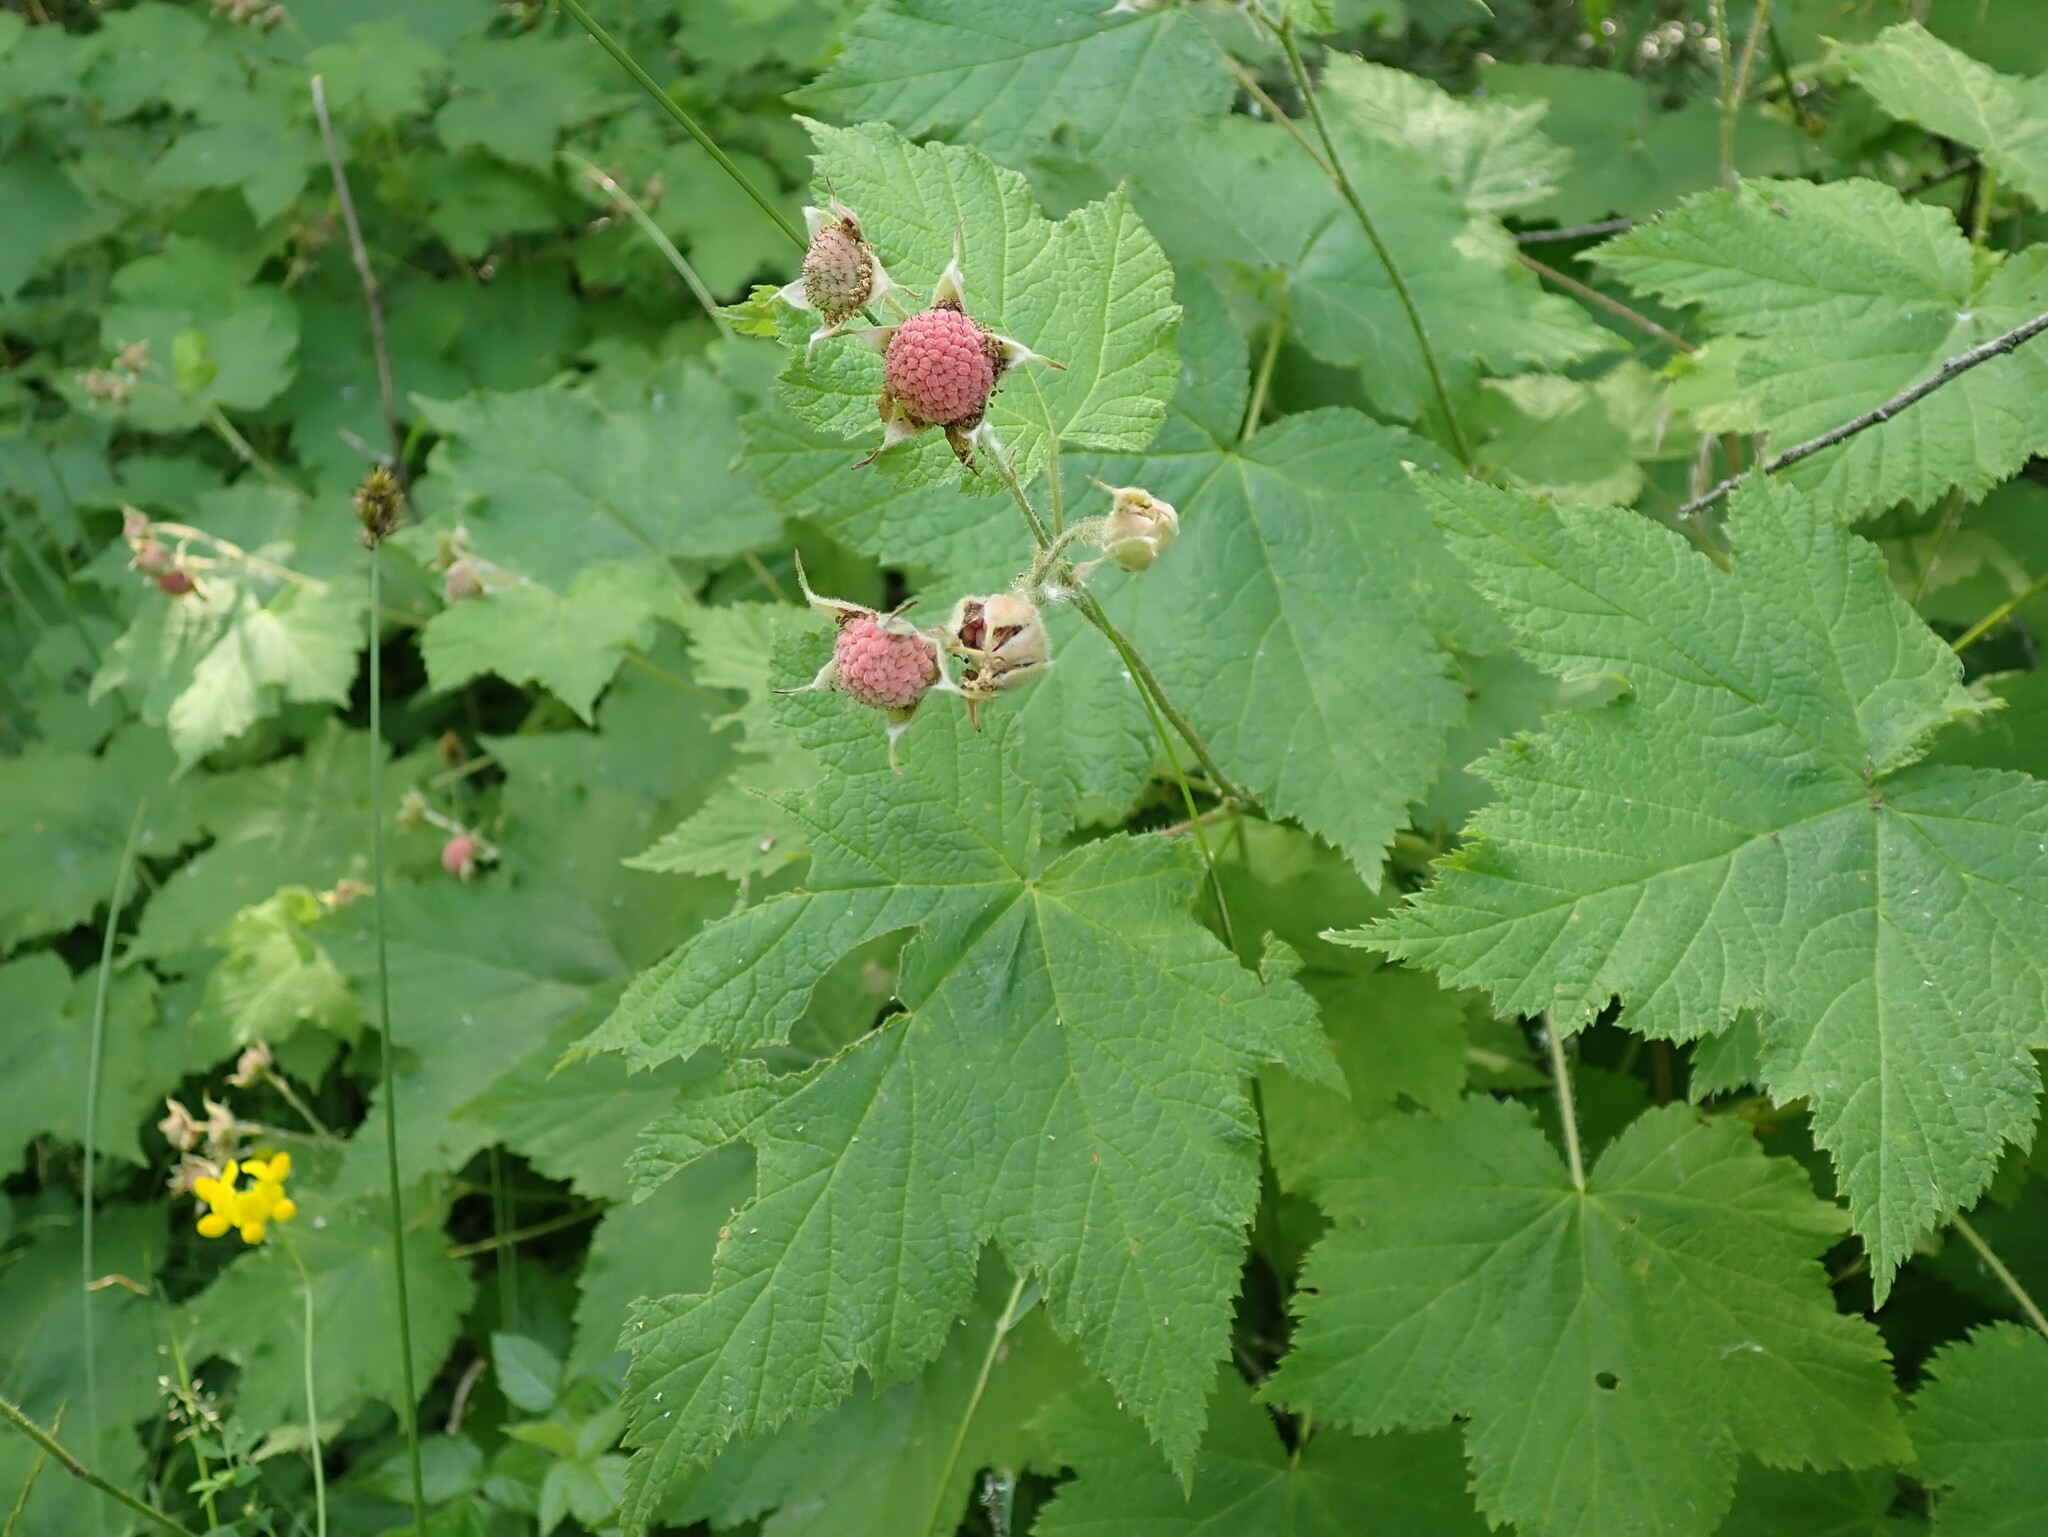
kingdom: Plantae
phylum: Tracheophyta
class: Magnoliopsida
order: Rosales
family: Rosaceae
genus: Rubus
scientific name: Rubus parviflorus
